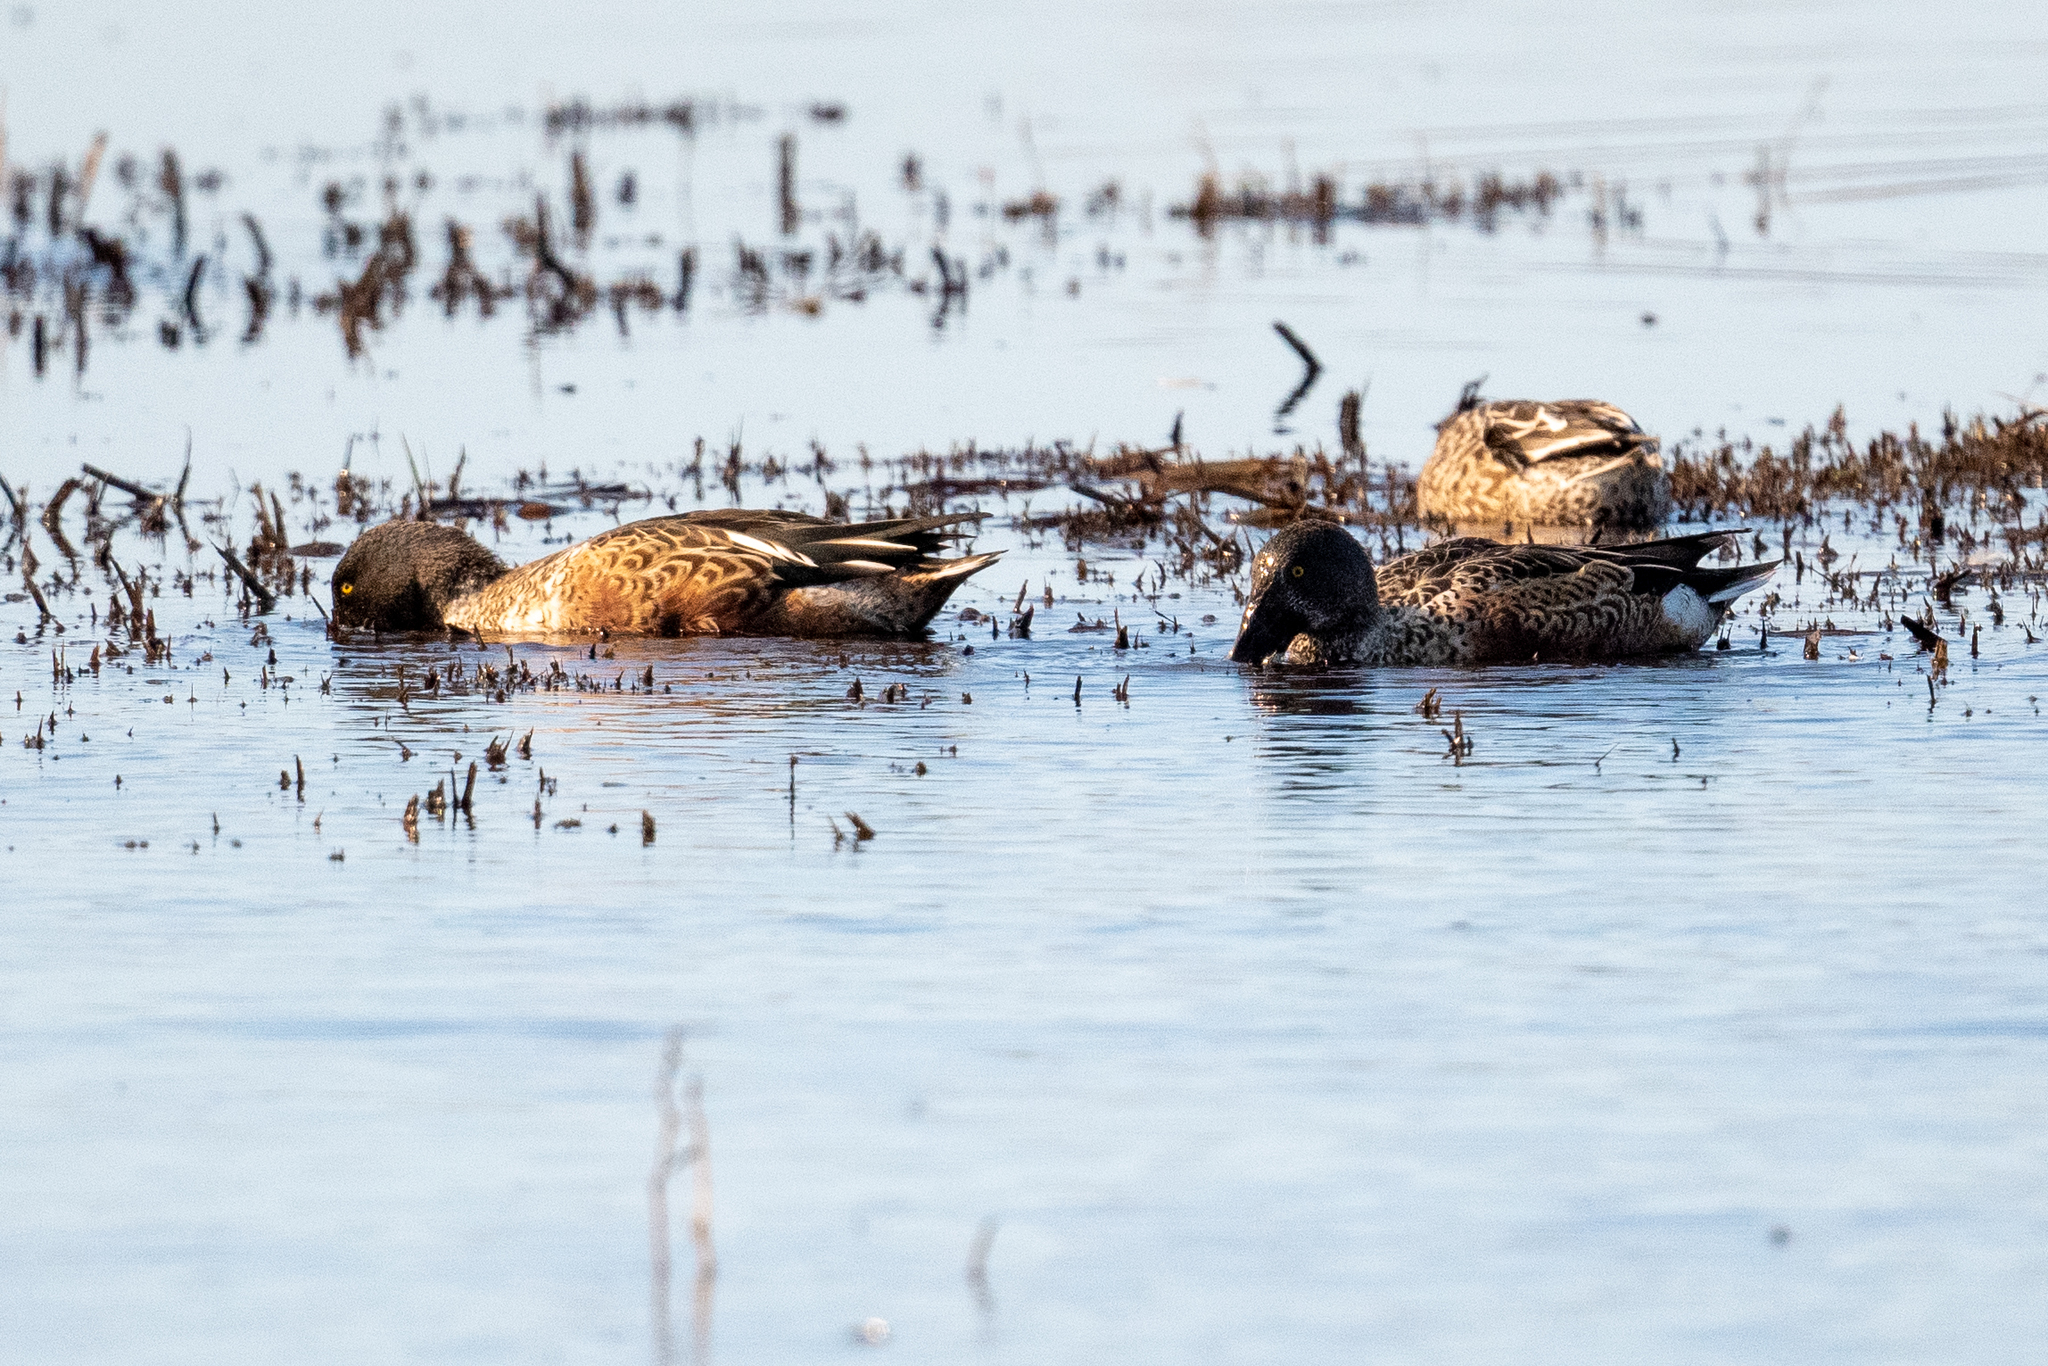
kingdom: Animalia
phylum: Chordata
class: Aves
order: Anseriformes
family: Anatidae
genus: Spatula
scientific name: Spatula clypeata
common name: Northern shoveler
